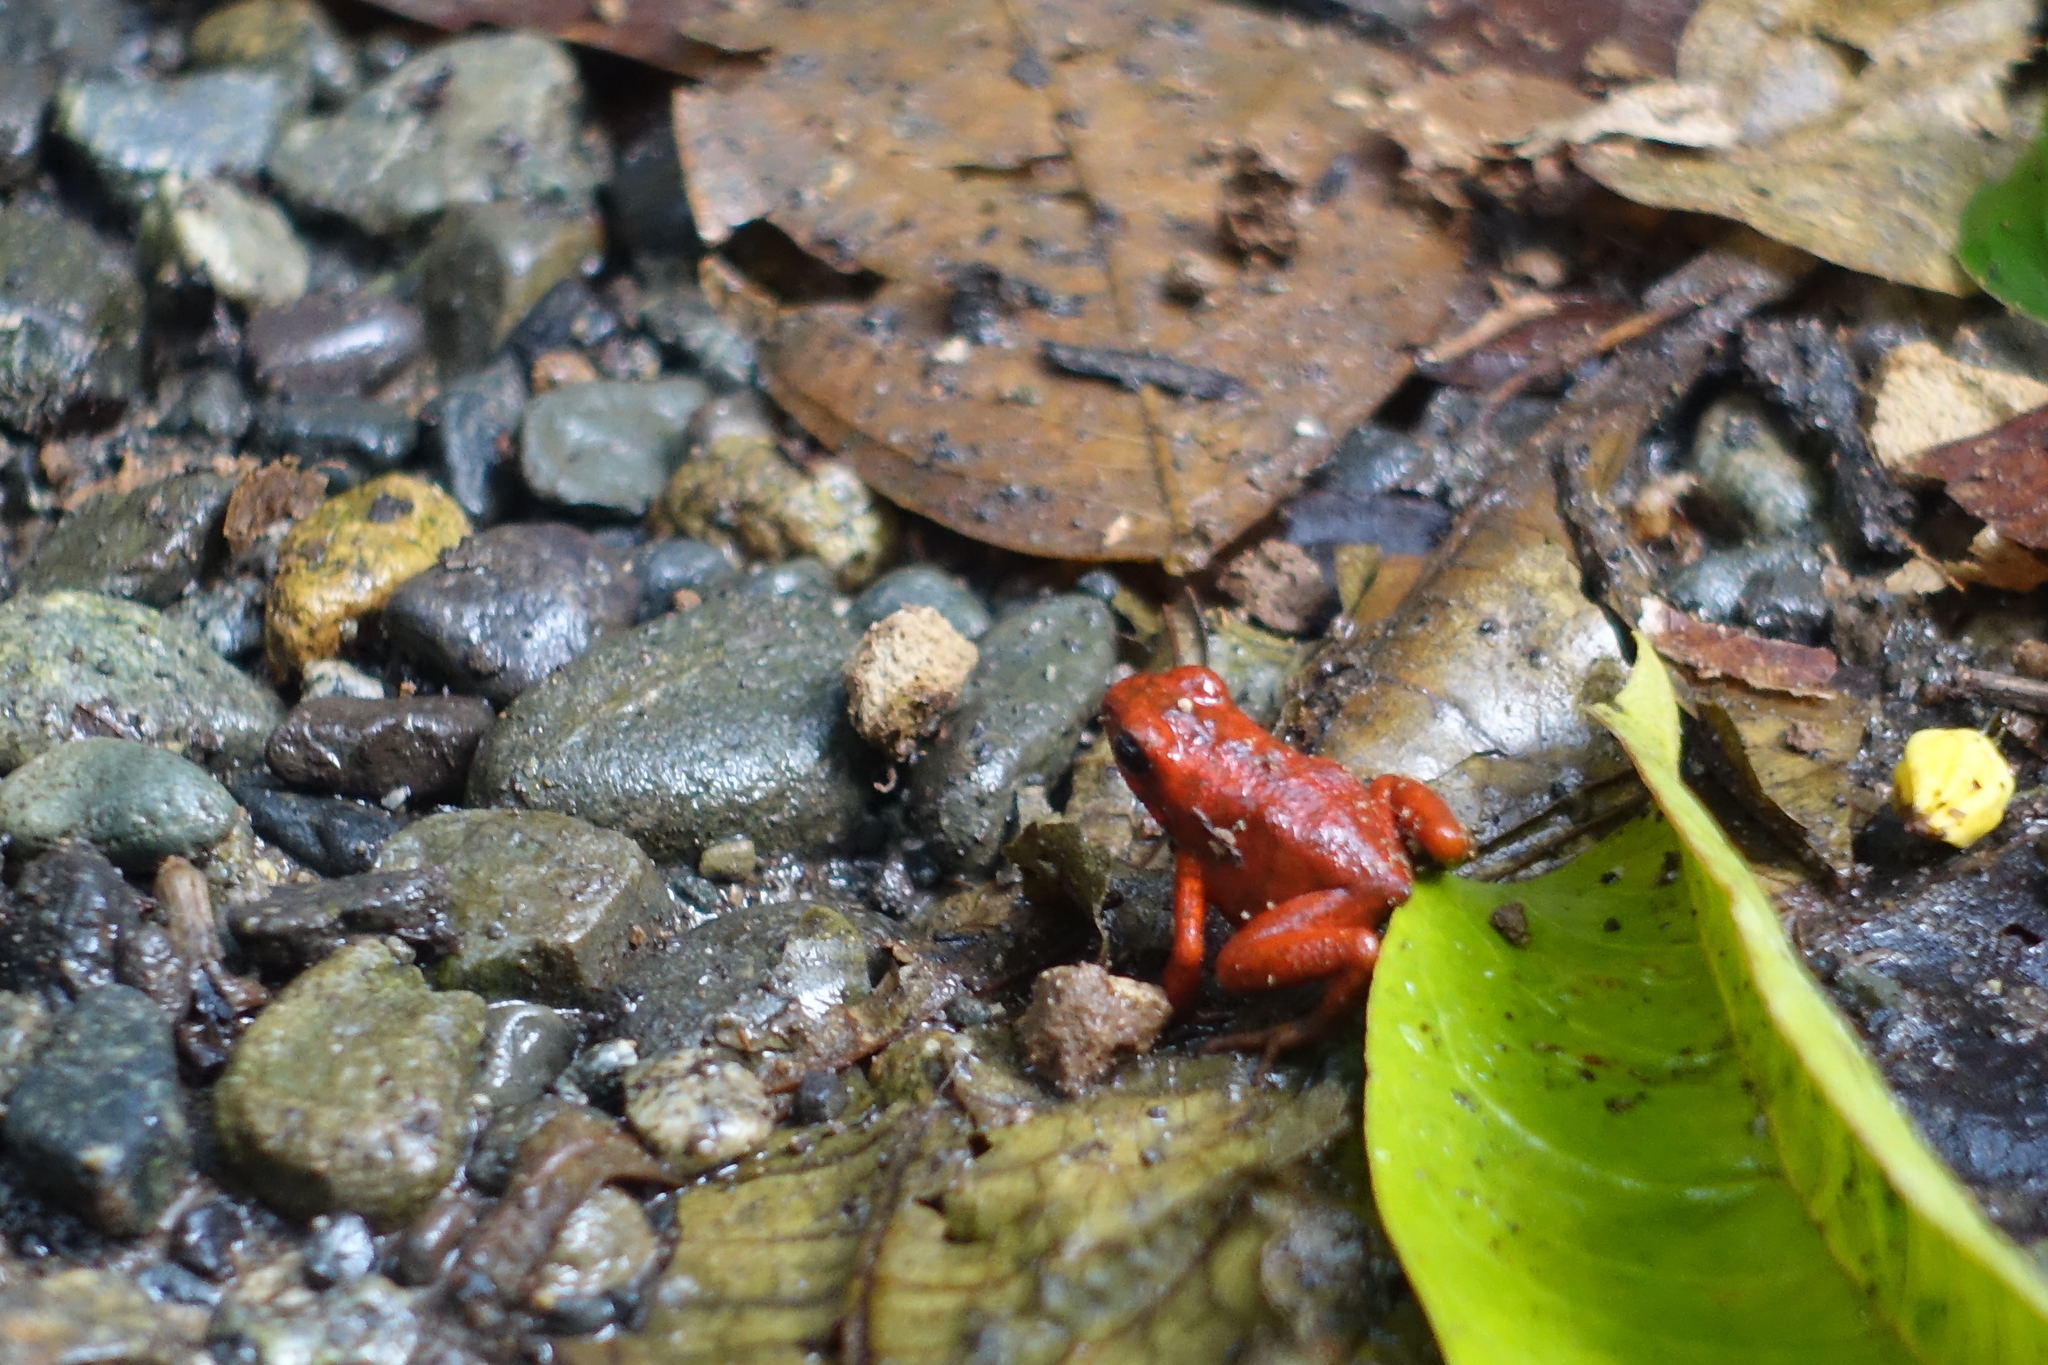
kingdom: Animalia
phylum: Chordata
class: Amphibia
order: Anura
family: Dendrobatidae
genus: Oophaga
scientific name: Oophaga pumilio
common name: Flaming poison frog
